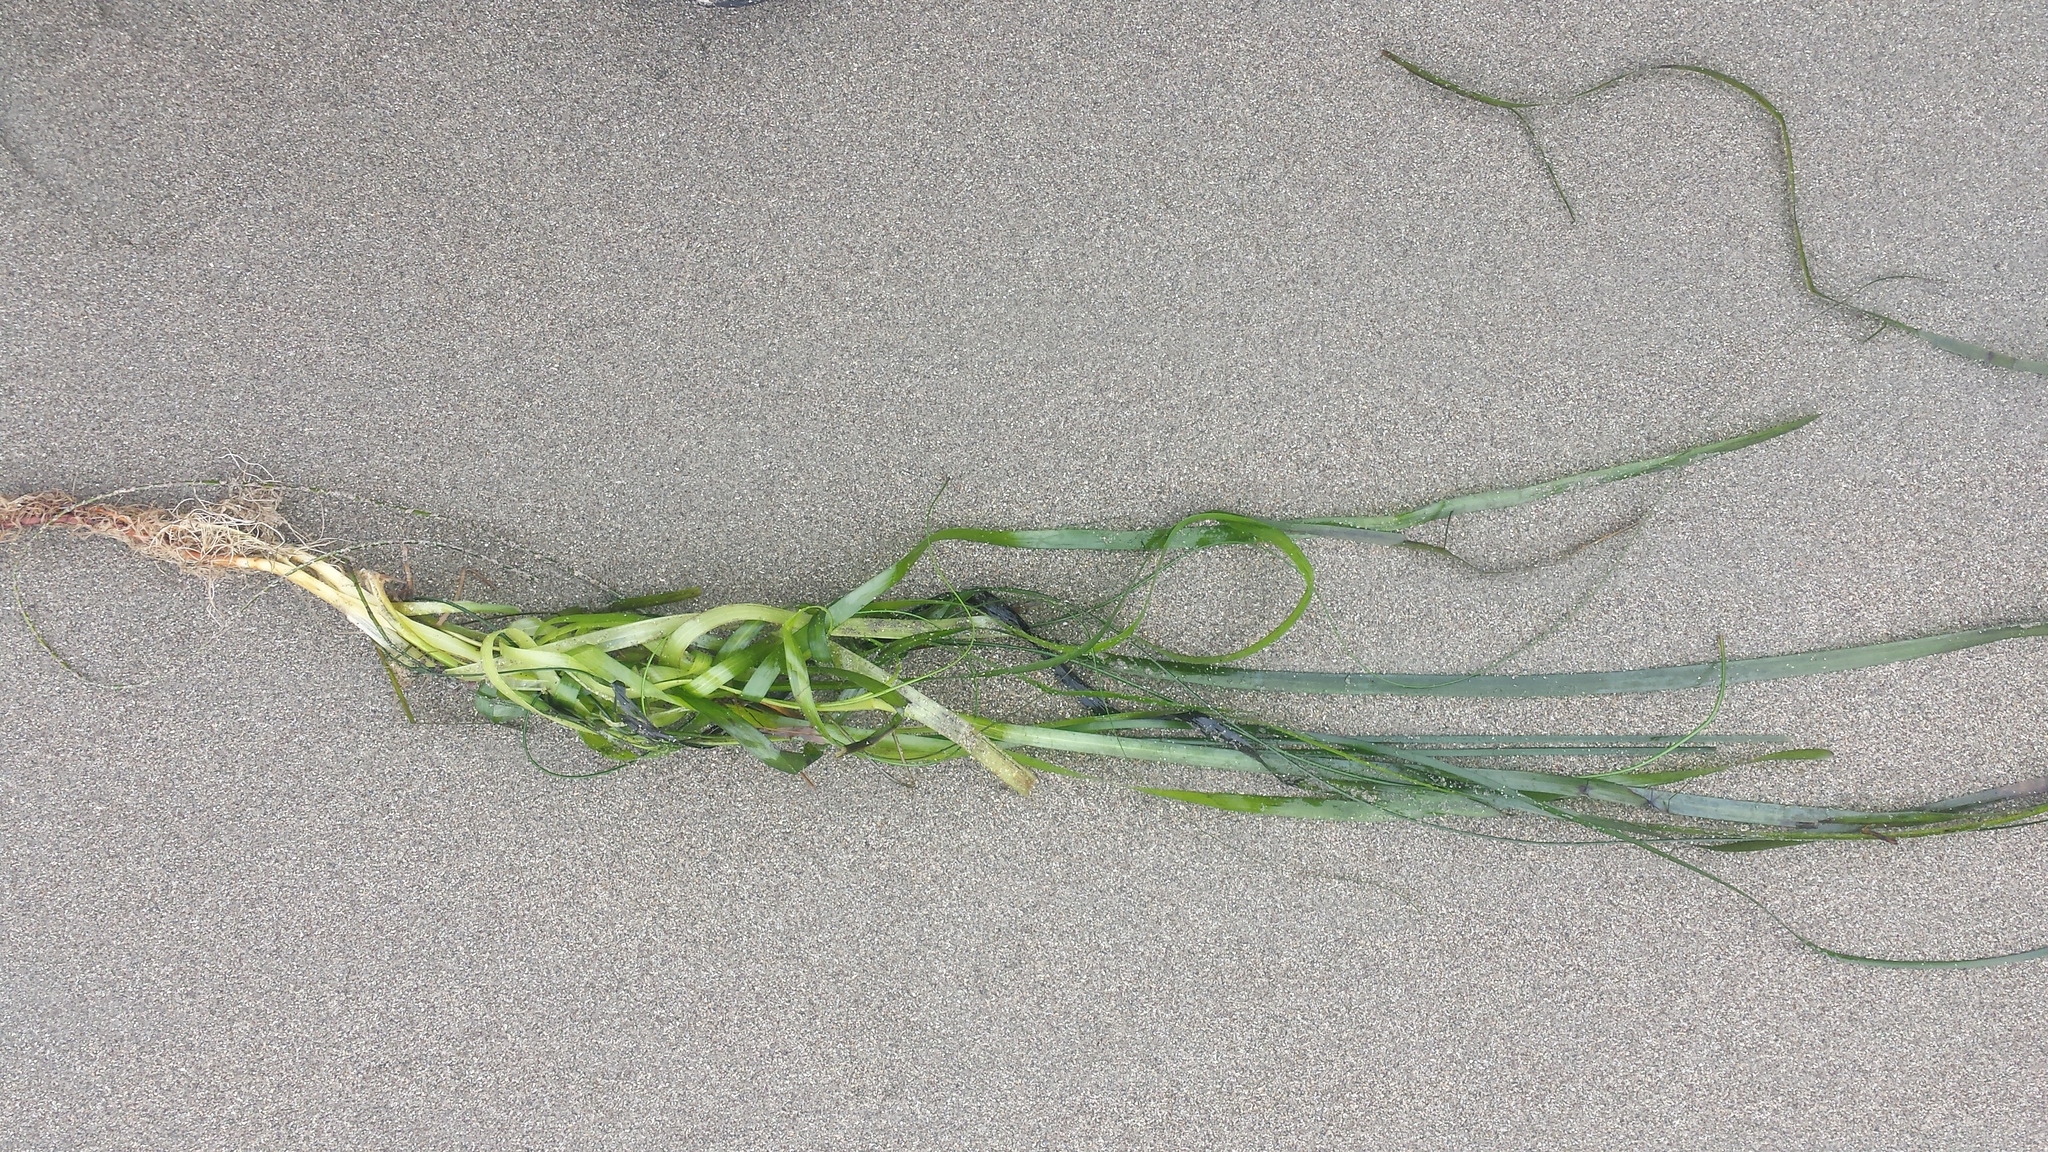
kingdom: Plantae
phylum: Tracheophyta
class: Liliopsida
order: Alismatales
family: Zosteraceae
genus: Zostera
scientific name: Zostera marina
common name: Eelgrass
